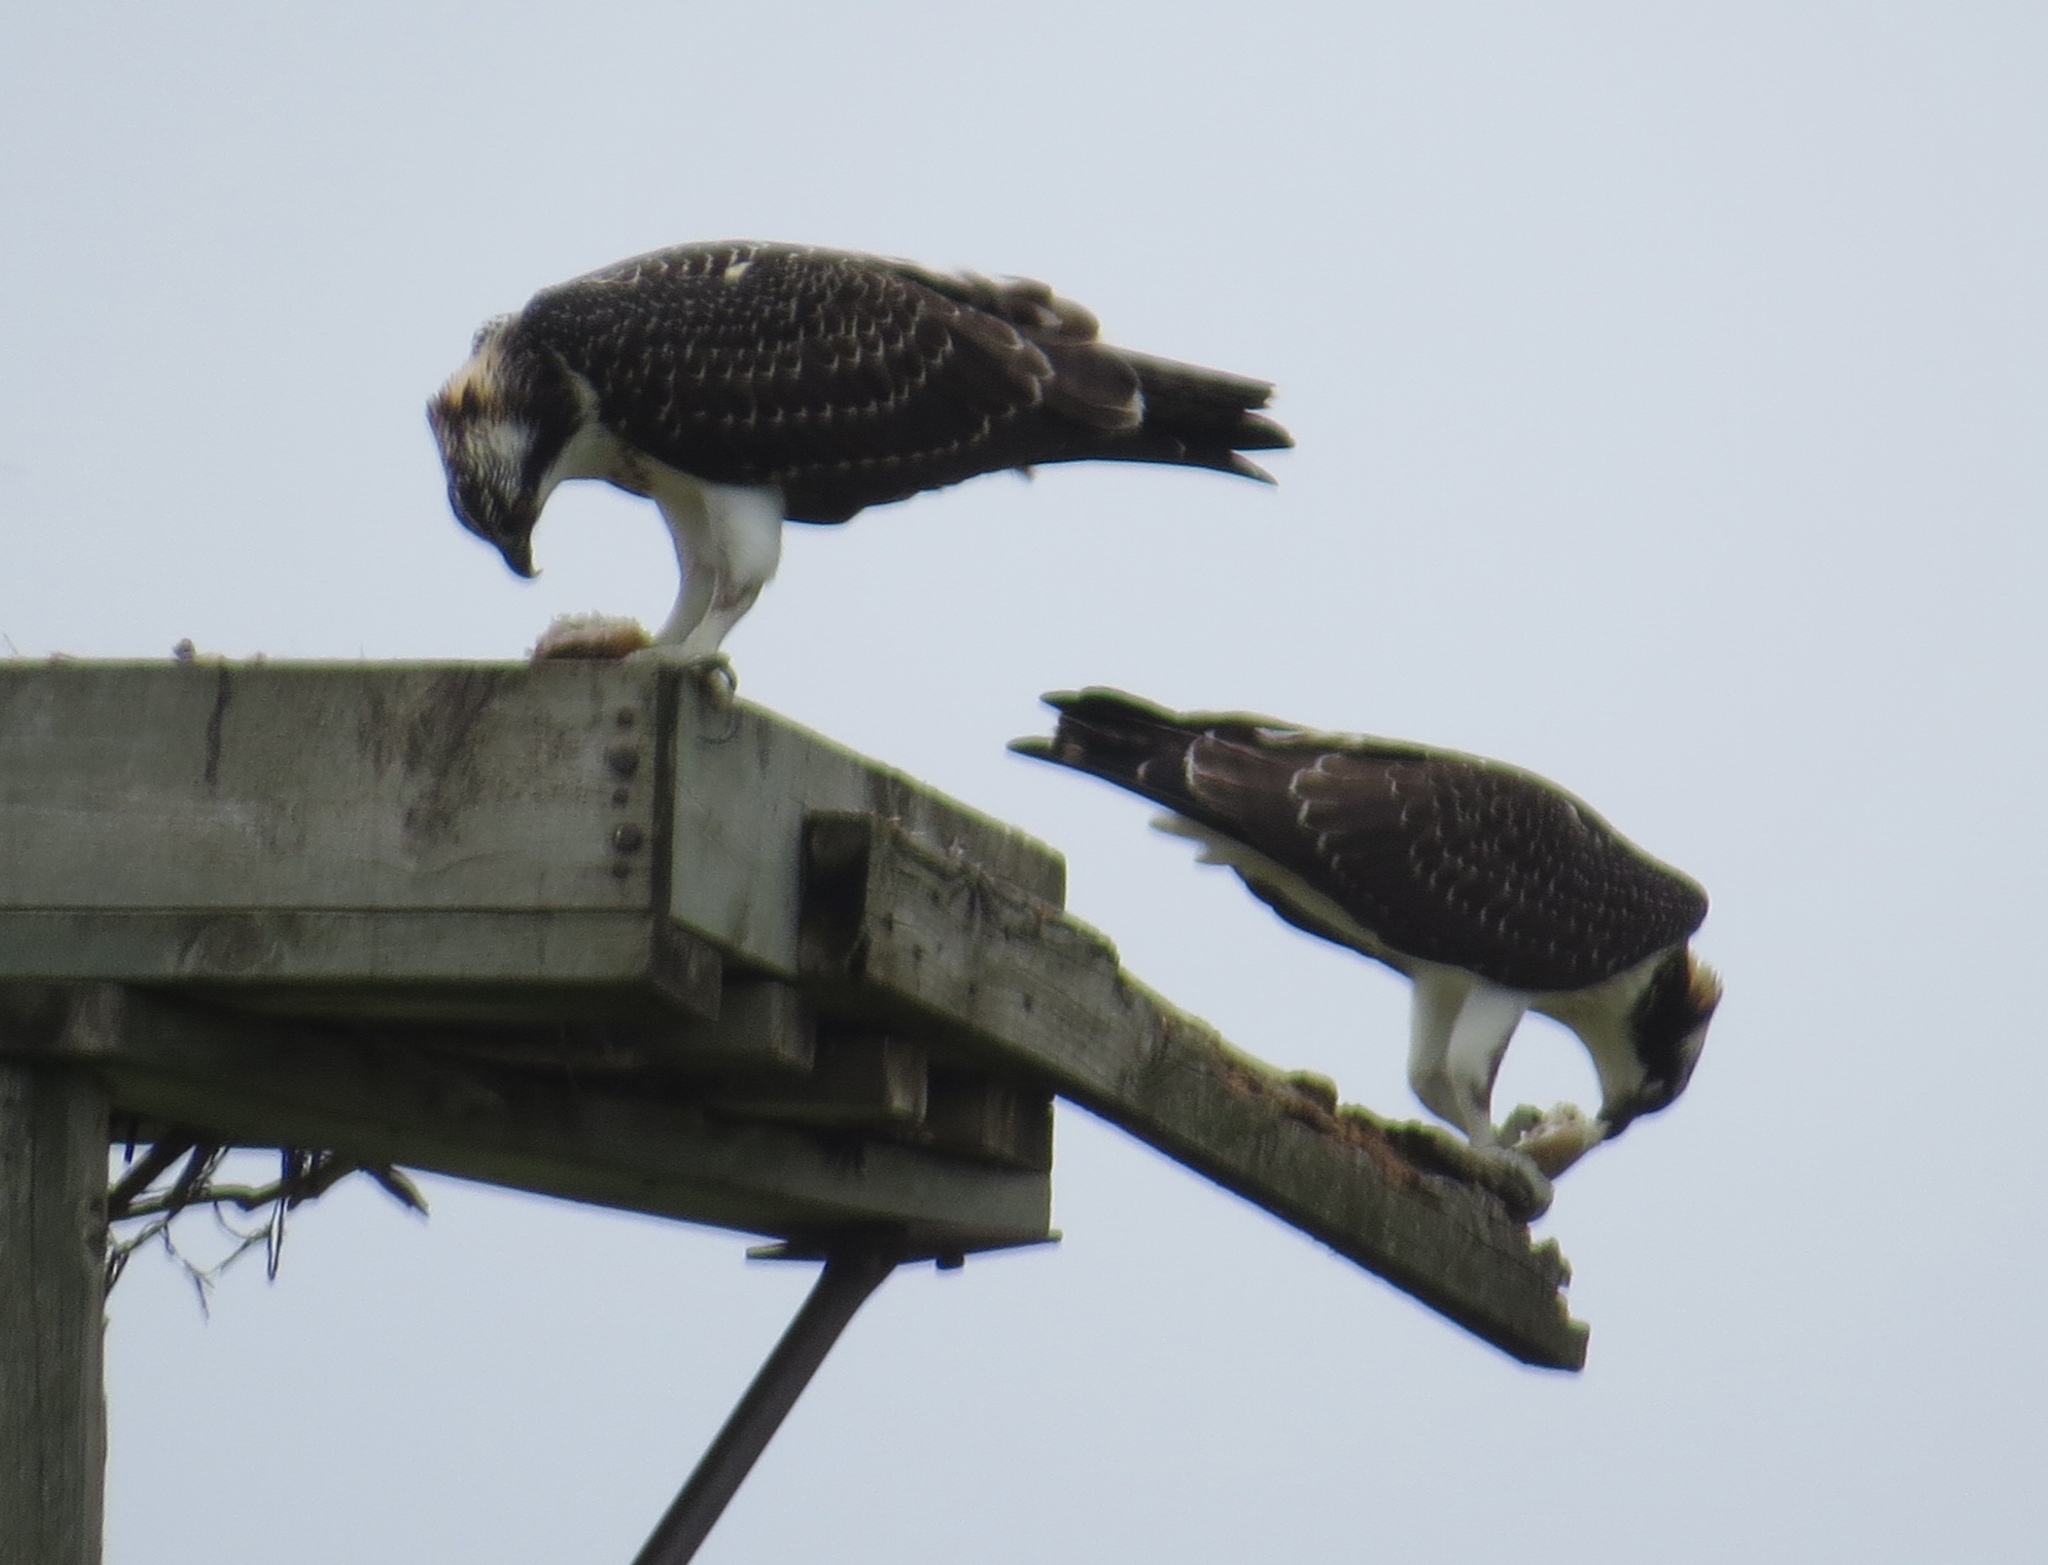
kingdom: Animalia
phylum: Chordata
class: Aves
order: Accipitriformes
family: Pandionidae
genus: Pandion
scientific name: Pandion haliaetus
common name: Osprey
